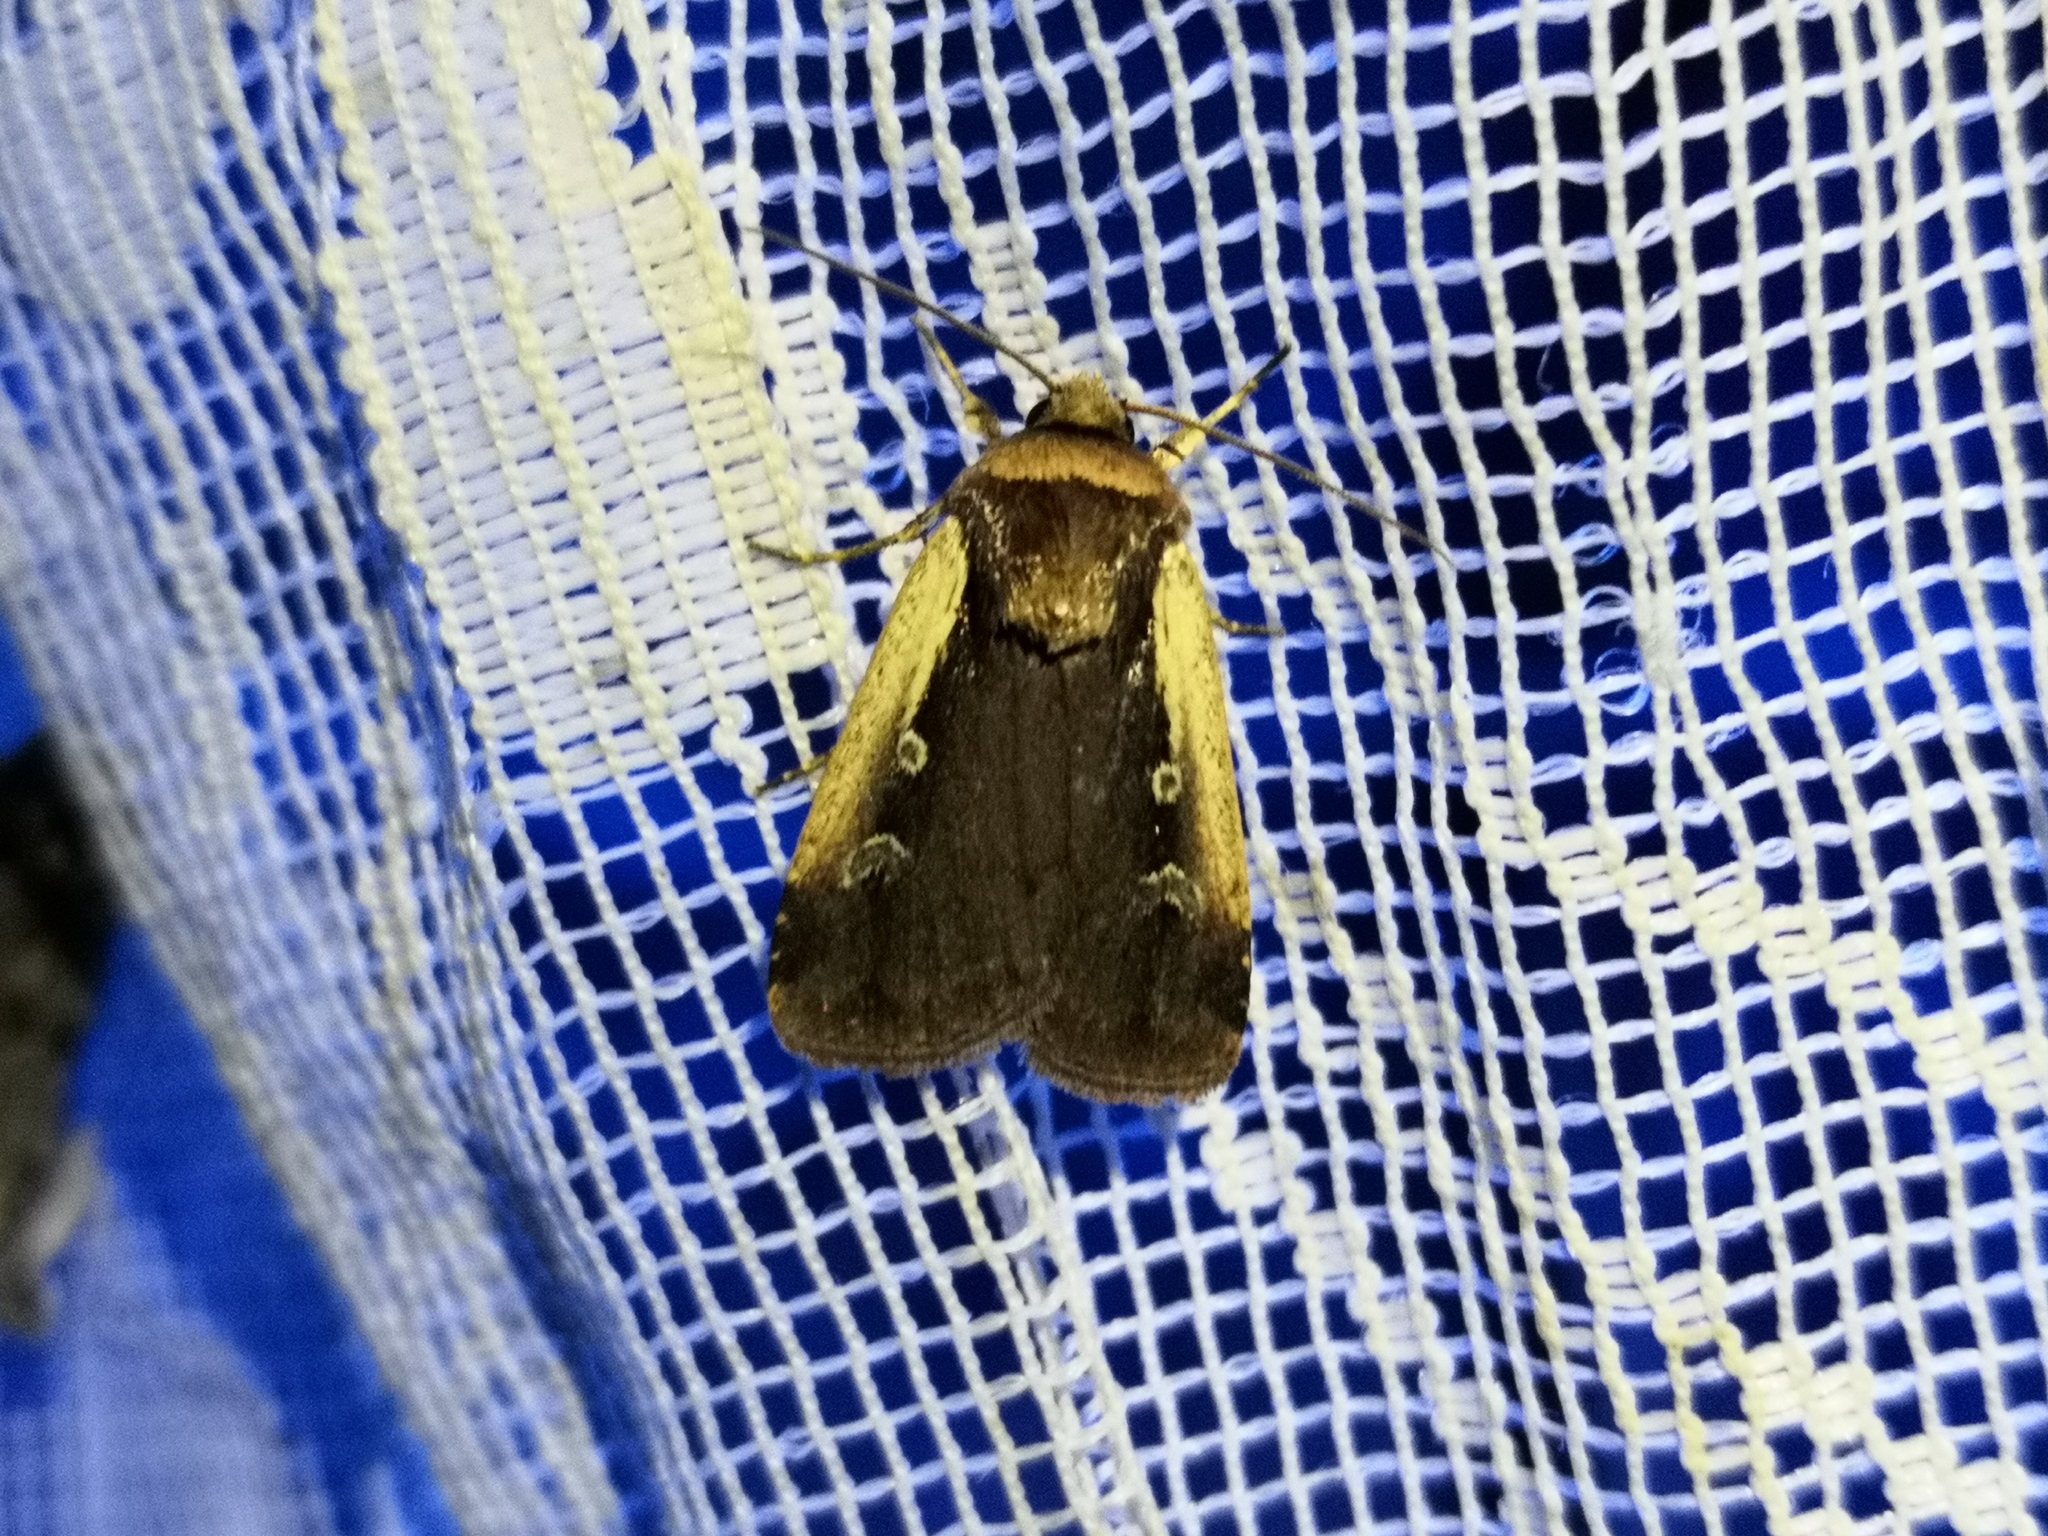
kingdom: Animalia
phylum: Arthropoda
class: Insecta
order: Lepidoptera
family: Noctuidae
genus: Ochropleura
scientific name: Ochropleura plecta
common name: Flame shoulder
